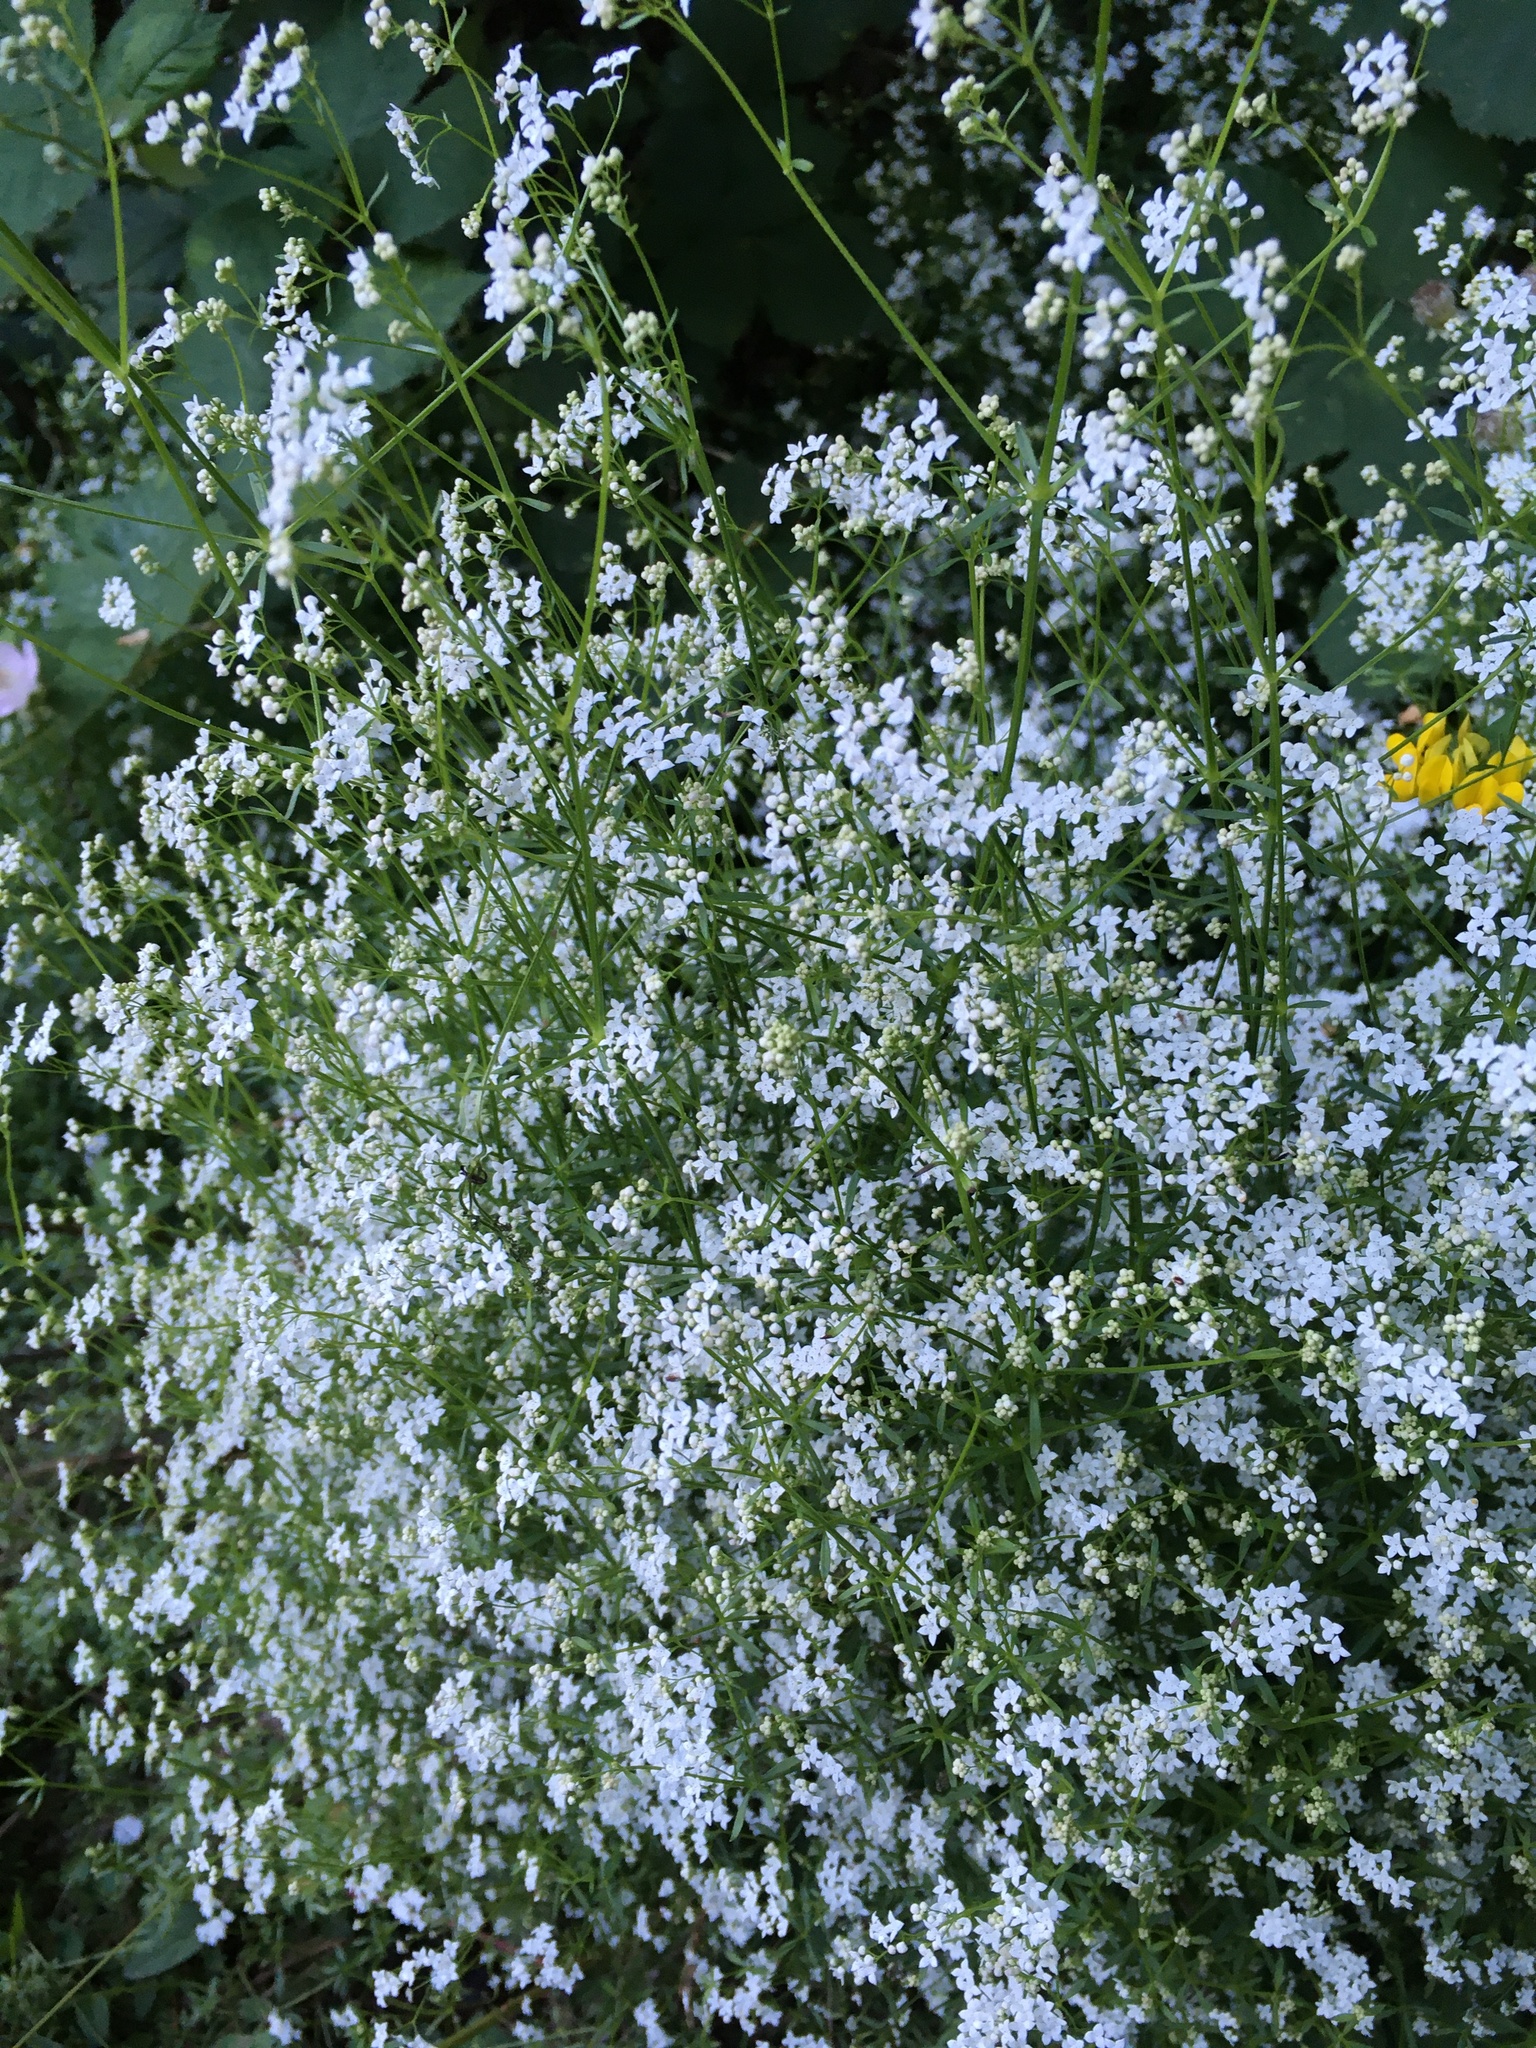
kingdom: Plantae
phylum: Tracheophyta
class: Magnoliopsida
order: Gentianales
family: Rubiaceae
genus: Galium
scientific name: Galium palustre
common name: Common marsh-bedstraw
